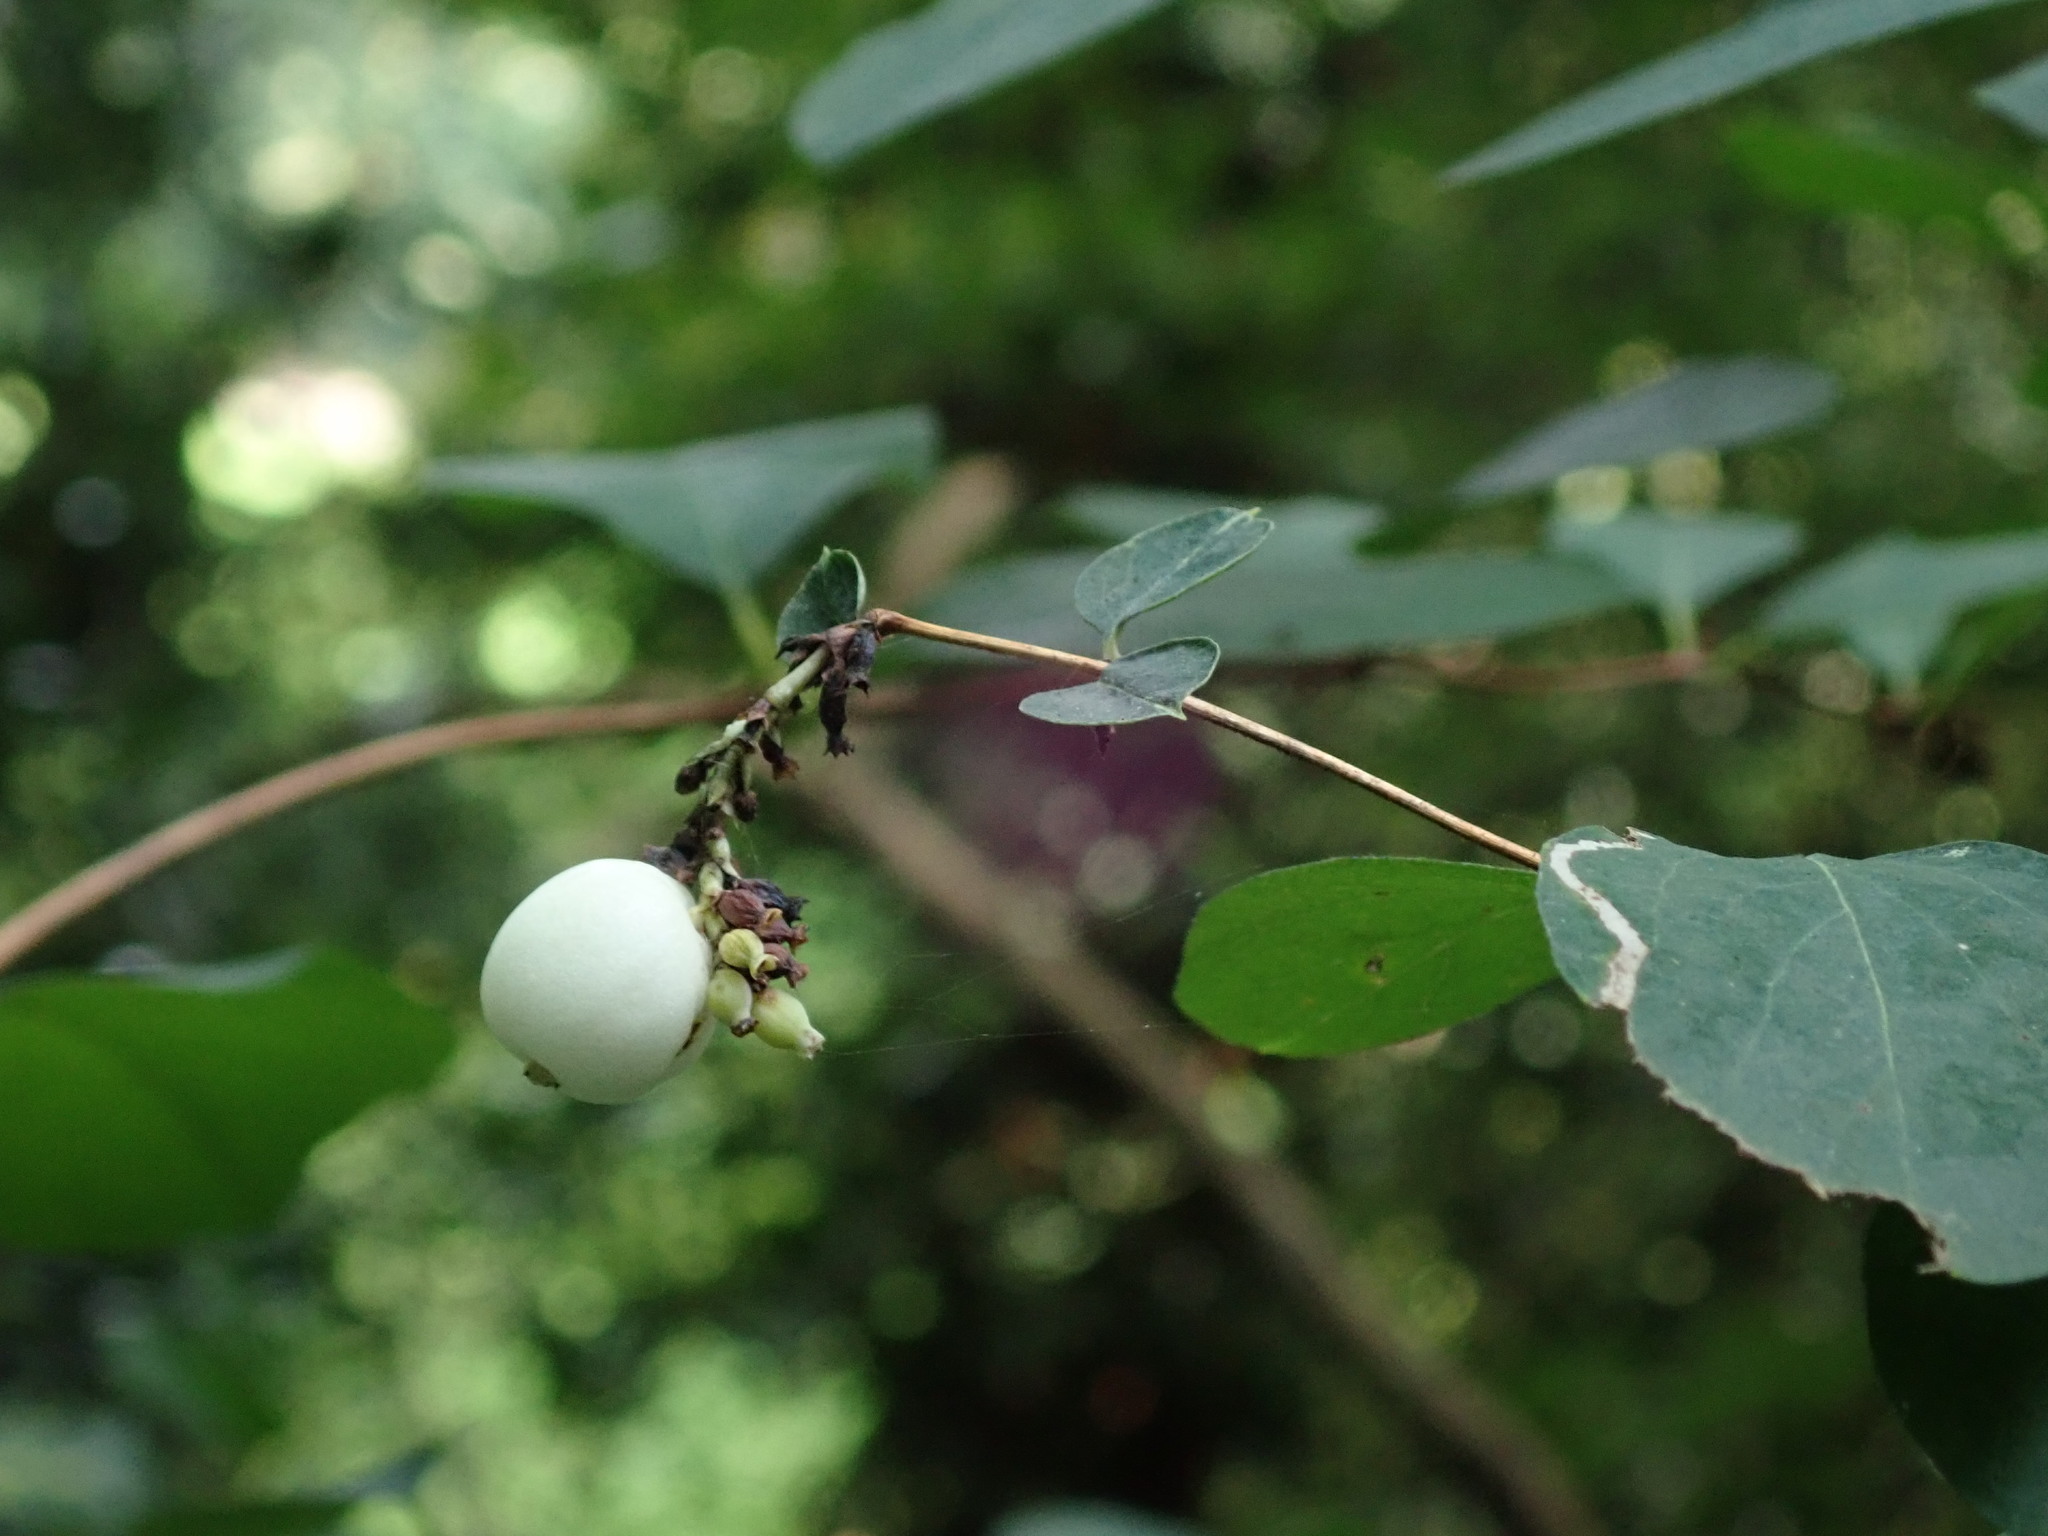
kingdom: Plantae
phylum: Tracheophyta
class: Magnoliopsida
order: Dipsacales
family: Caprifoliaceae
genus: Symphoricarpos
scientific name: Symphoricarpos albus
